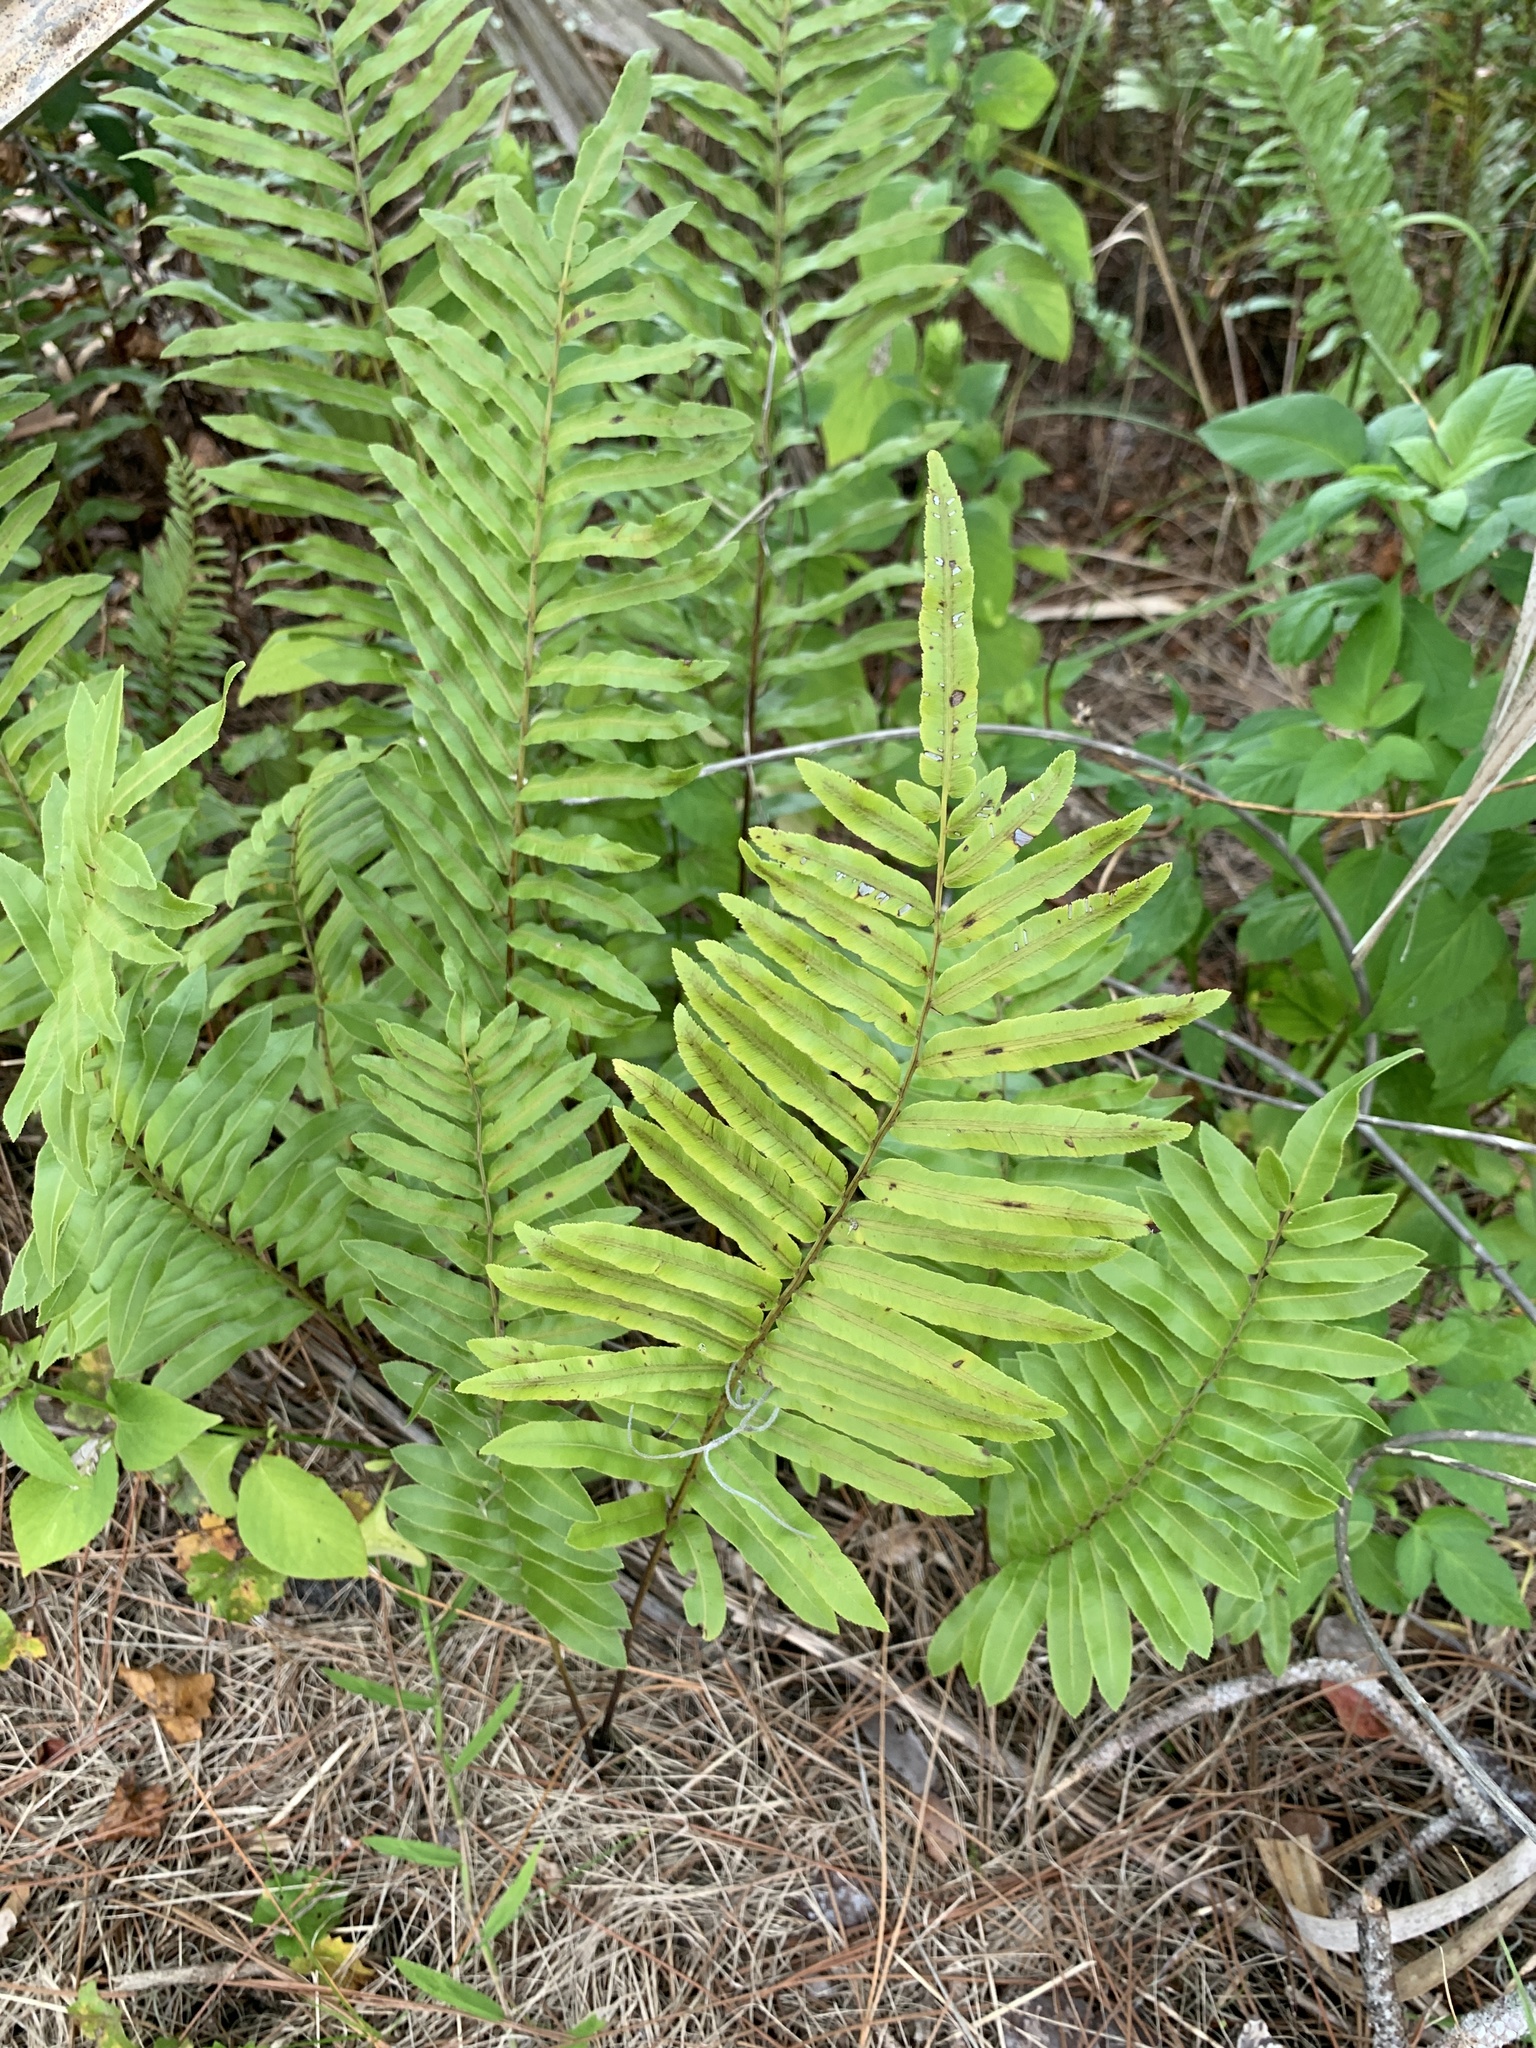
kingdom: Plantae
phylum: Tracheophyta
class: Polypodiopsida
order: Polypodiales
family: Blechnaceae
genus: Telmatoblechnum
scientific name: Telmatoblechnum serrulatum
